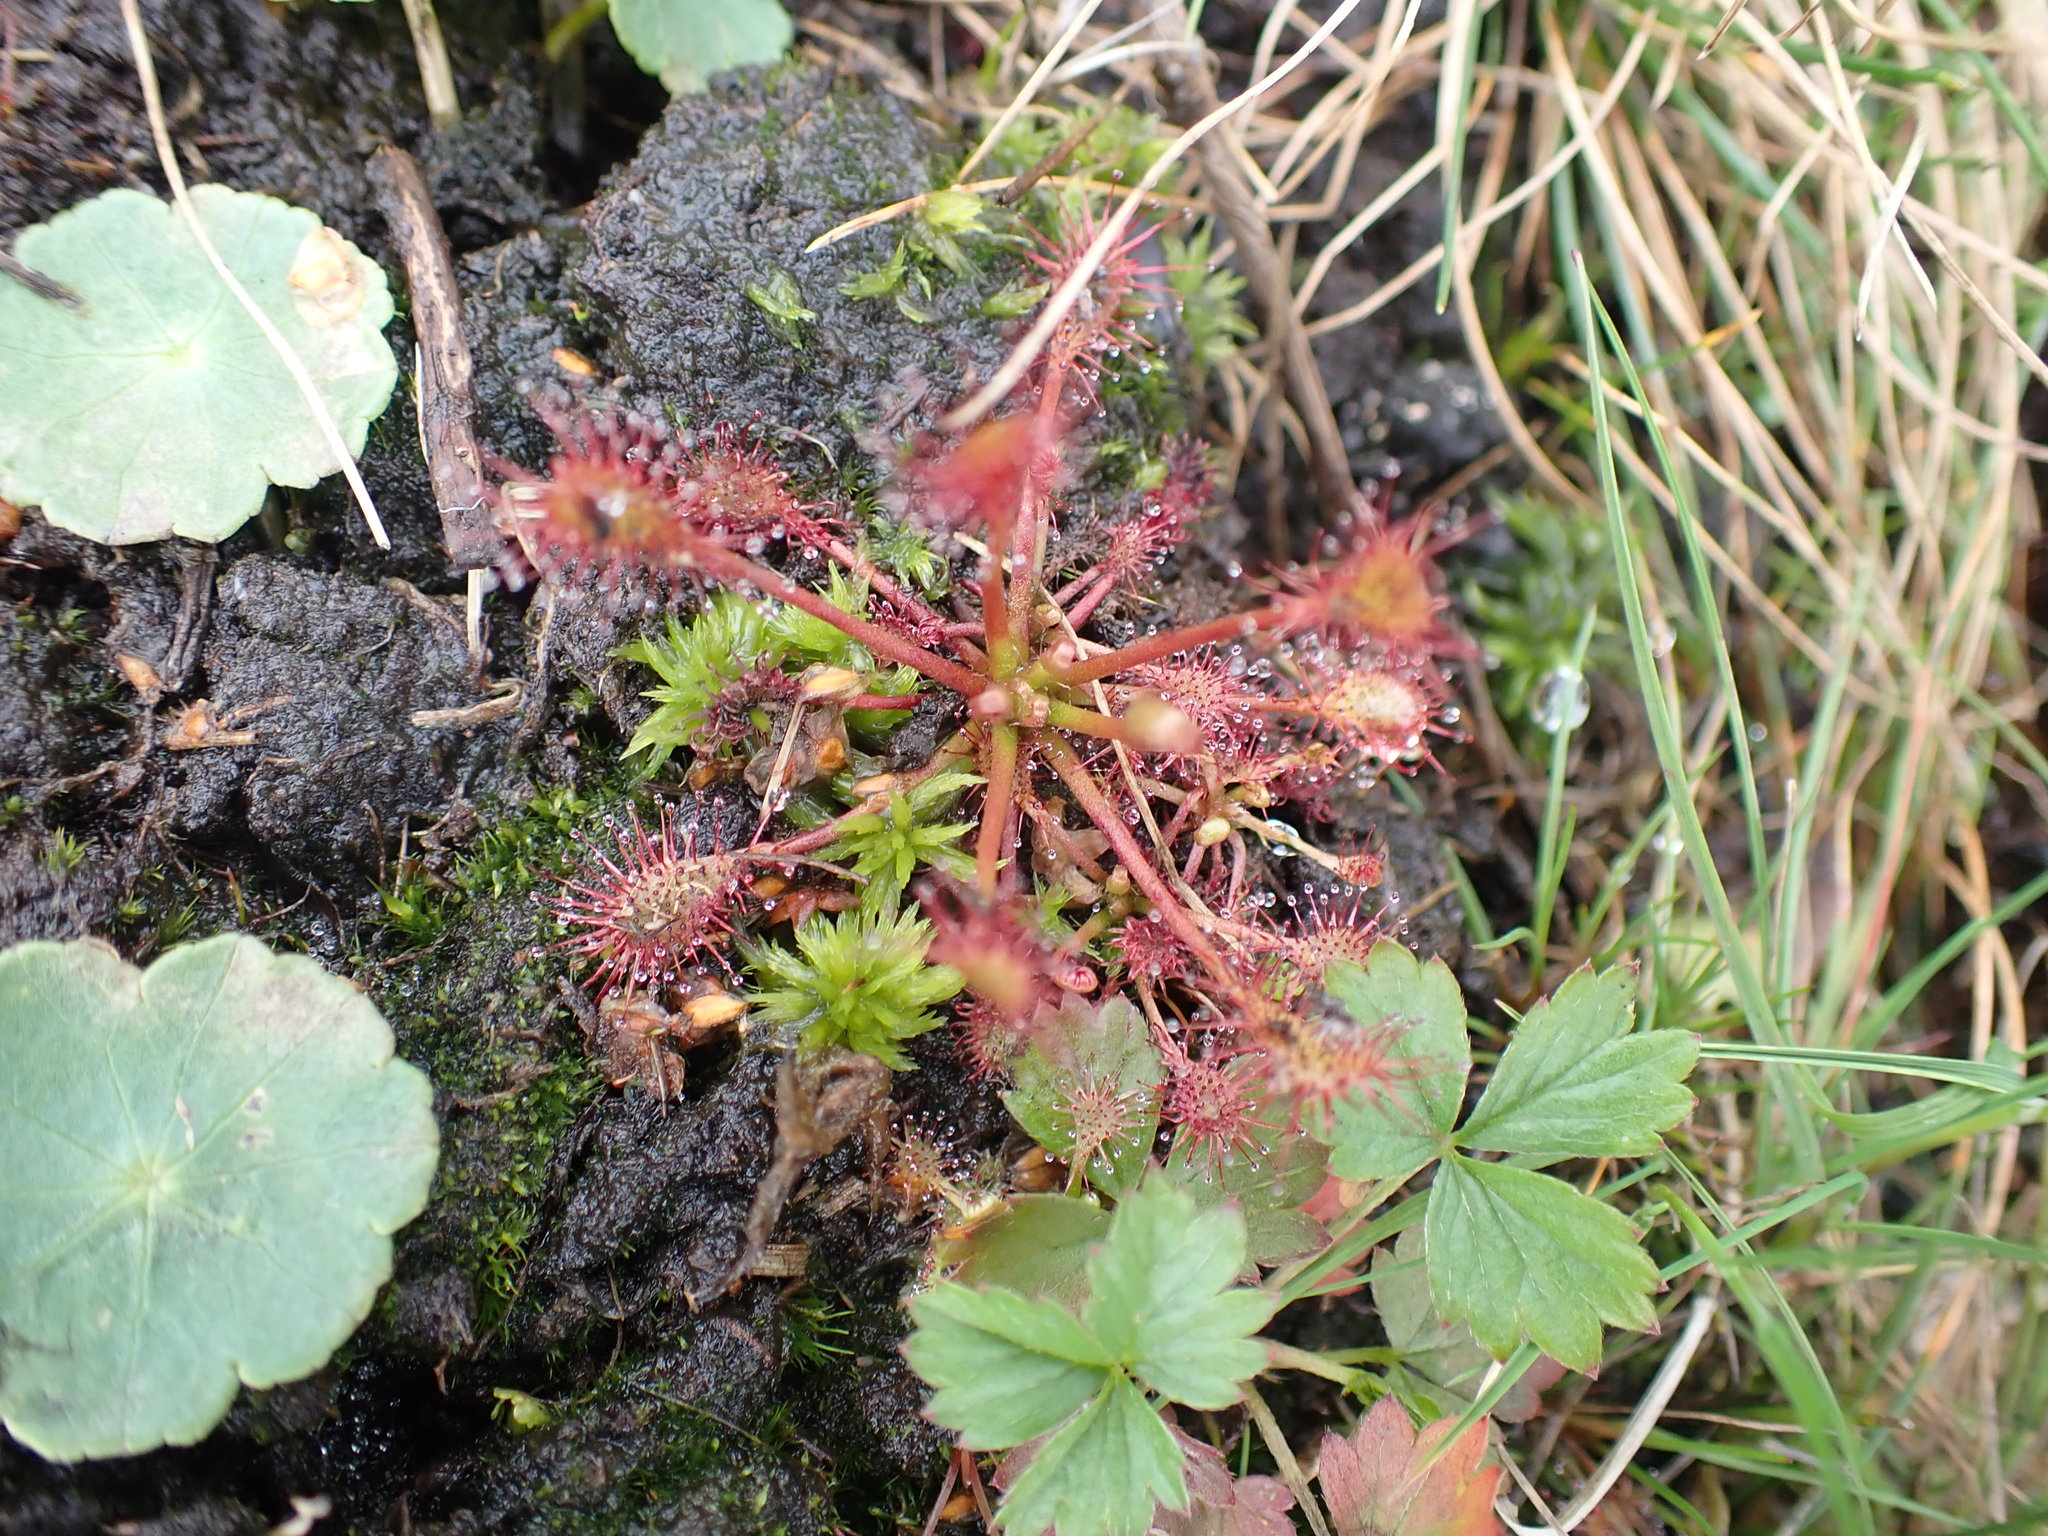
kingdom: Plantae
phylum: Tracheophyta
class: Magnoliopsida
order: Caryophyllales
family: Droseraceae
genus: Drosera
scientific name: Drosera intermedia
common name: Oblong-leaved sundew
